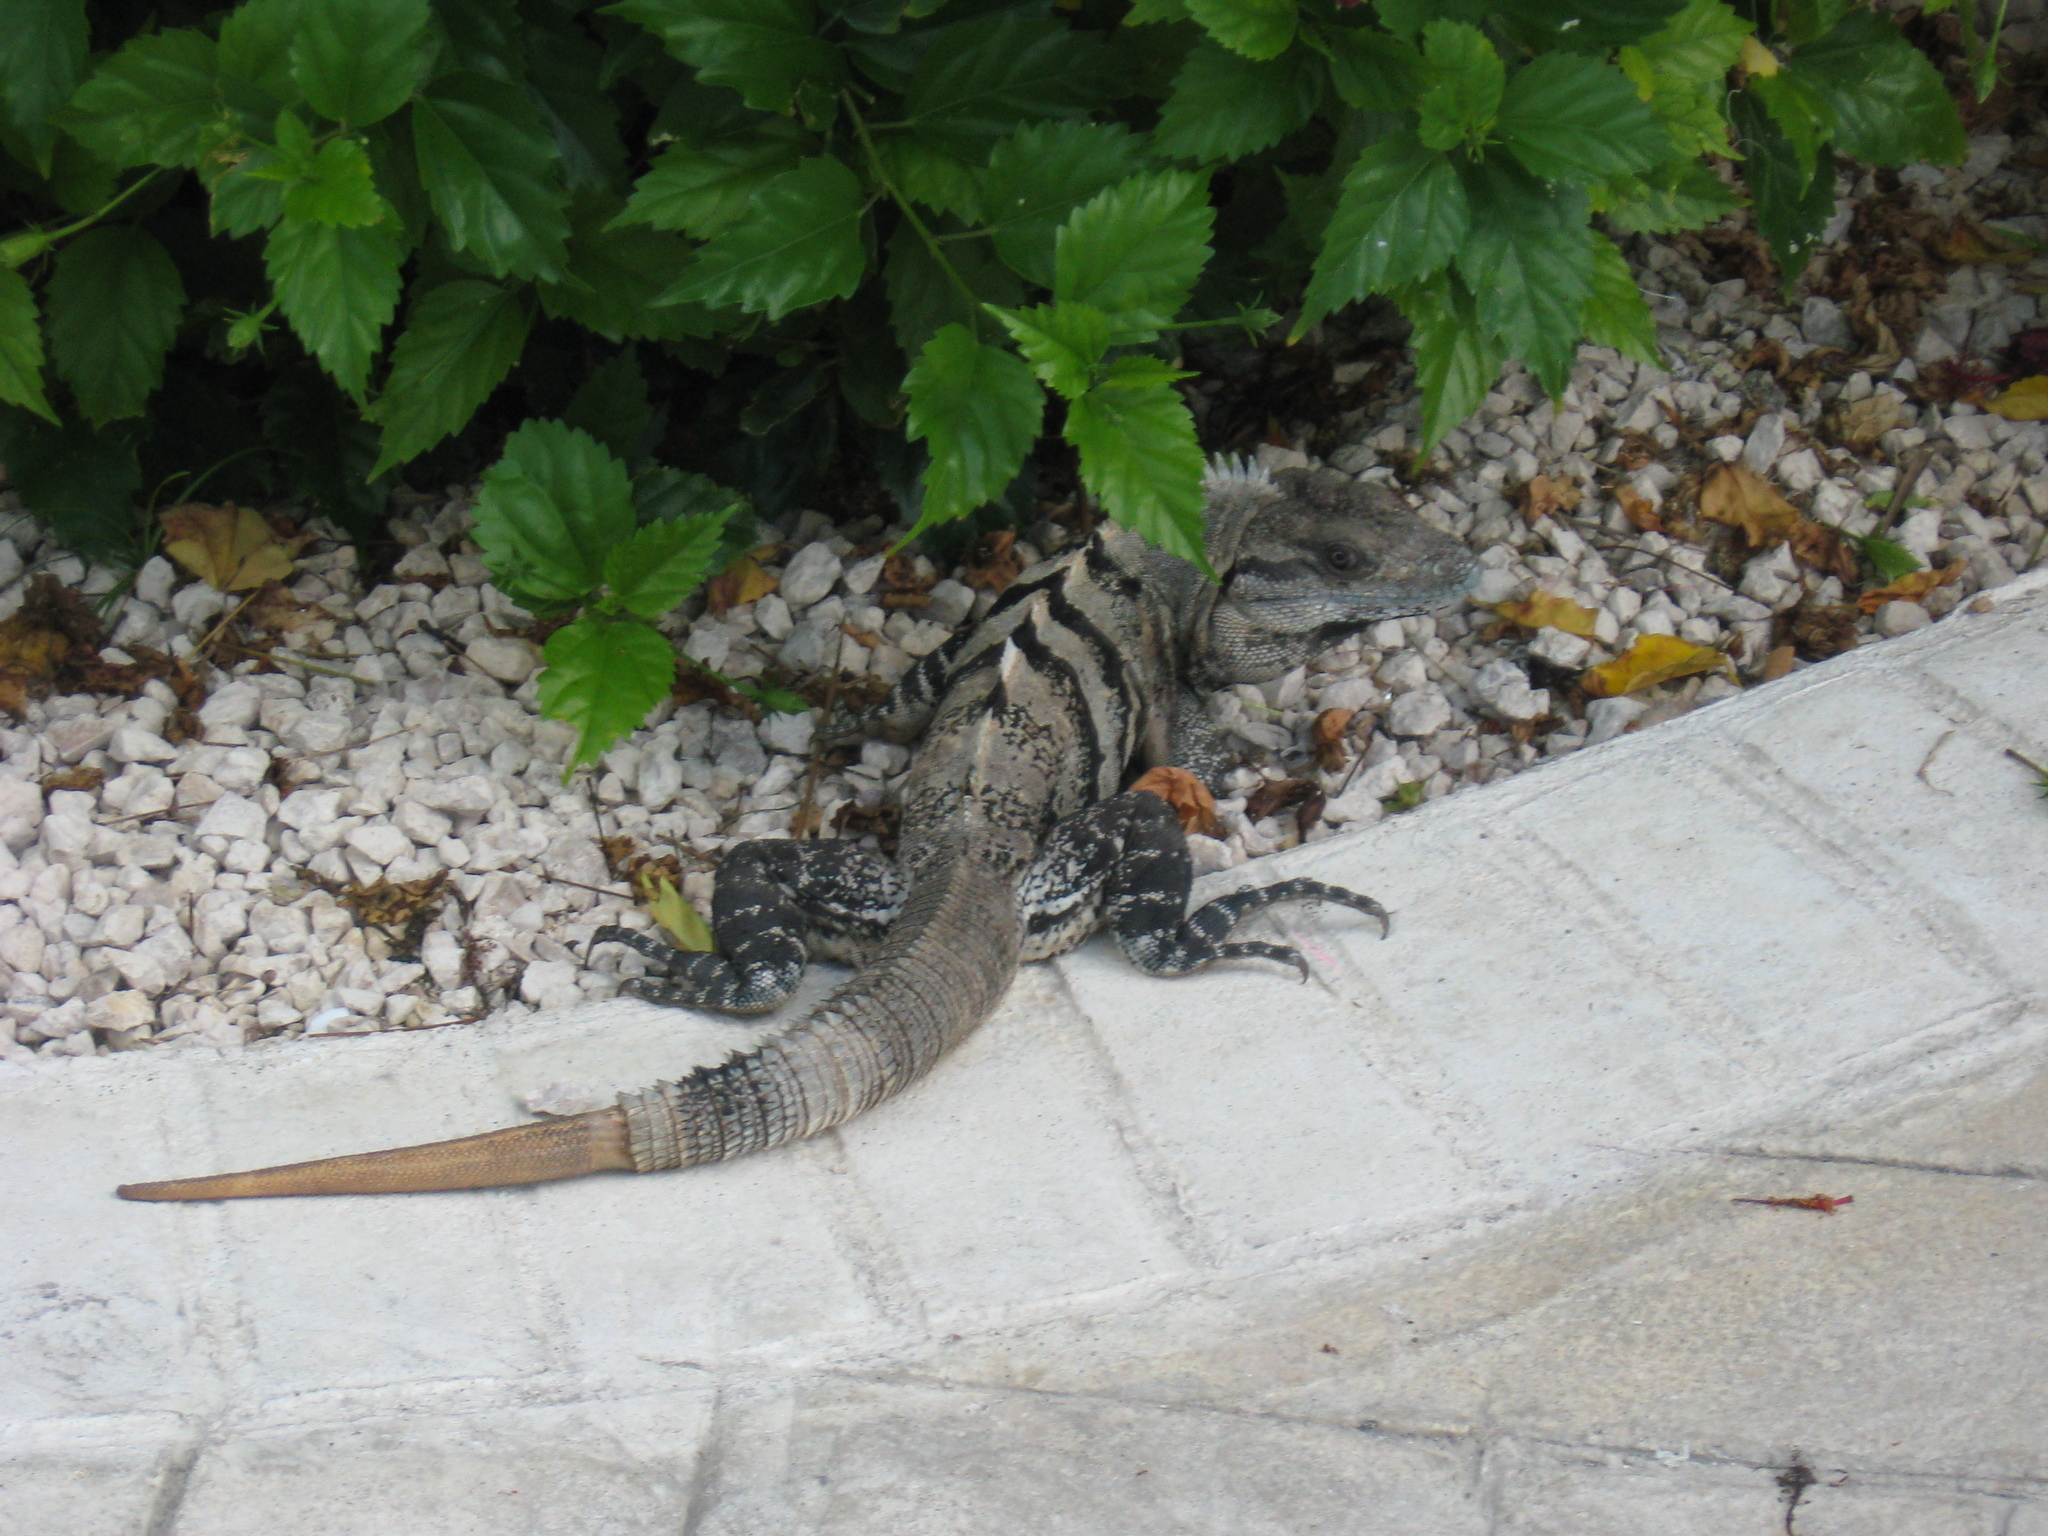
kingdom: Animalia
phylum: Chordata
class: Squamata
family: Iguanidae
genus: Ctenosaura
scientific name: Ctenosaura similis
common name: Black spiny-tailed iguana
